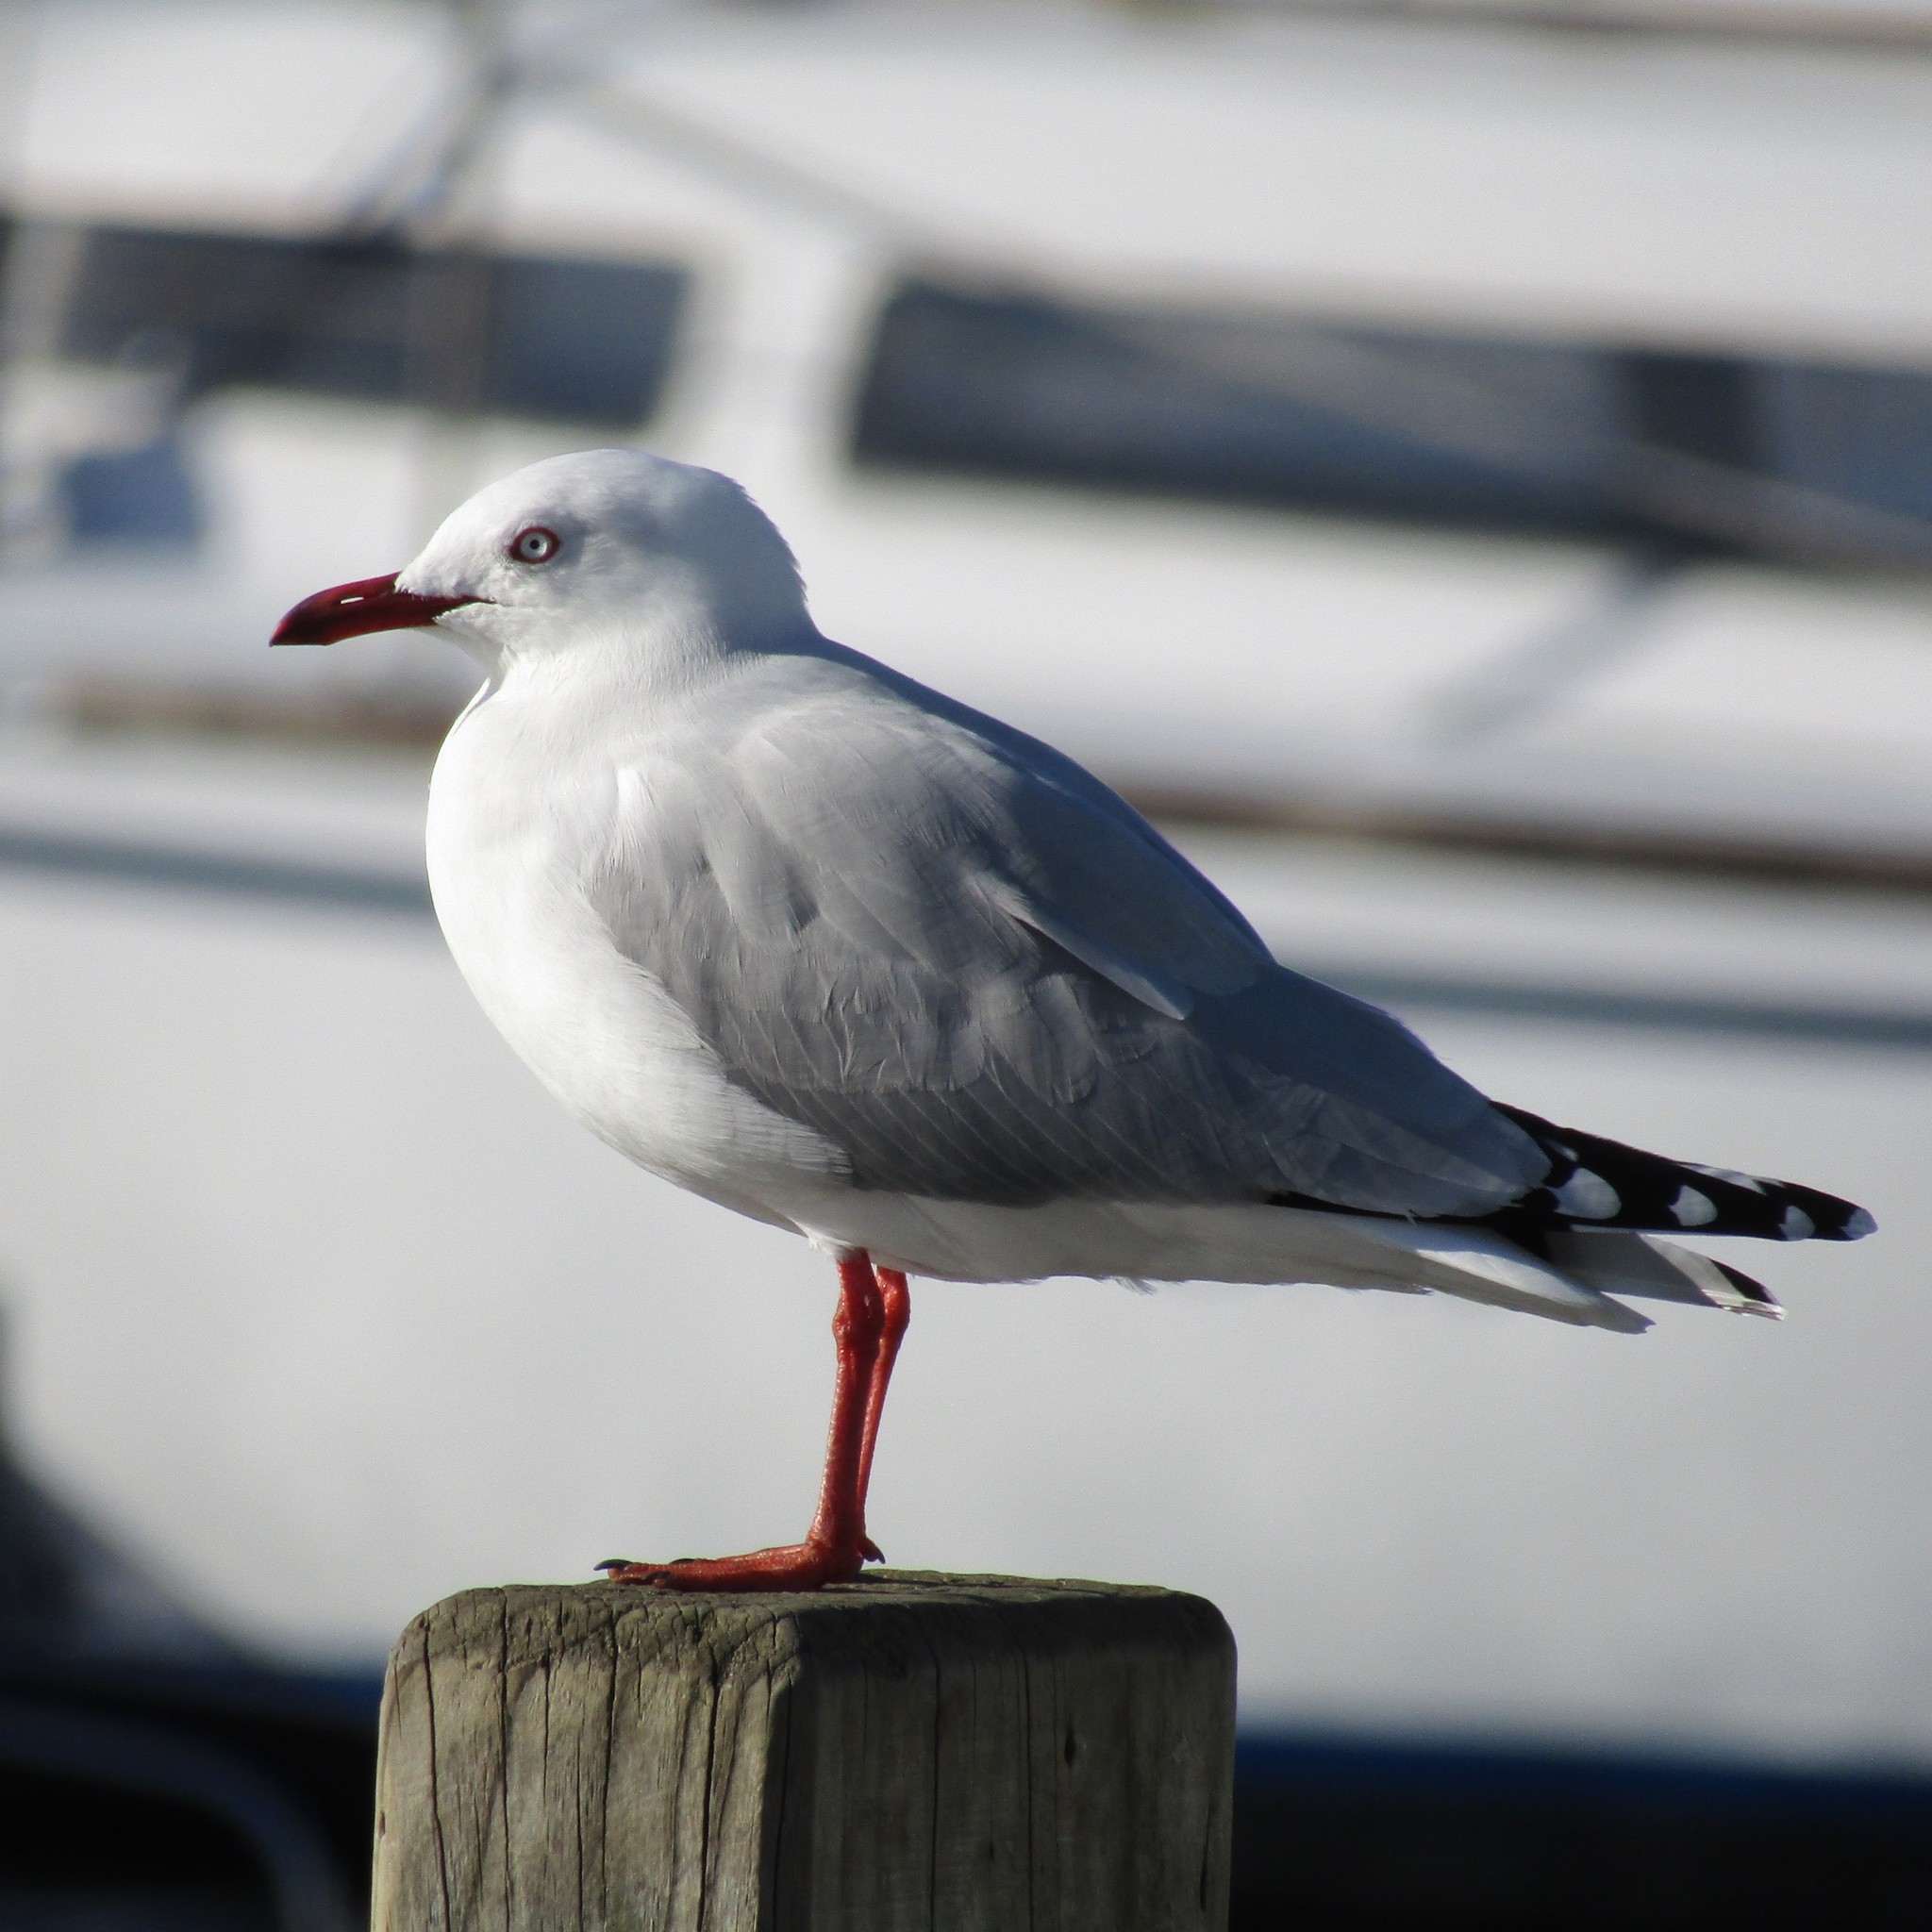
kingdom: Animalia
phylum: Chordata
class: Aves
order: Charadriiformes
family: Laridae
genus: Chroicocephalus
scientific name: Chroicocephalus novaehollandiae
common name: Silver gull
